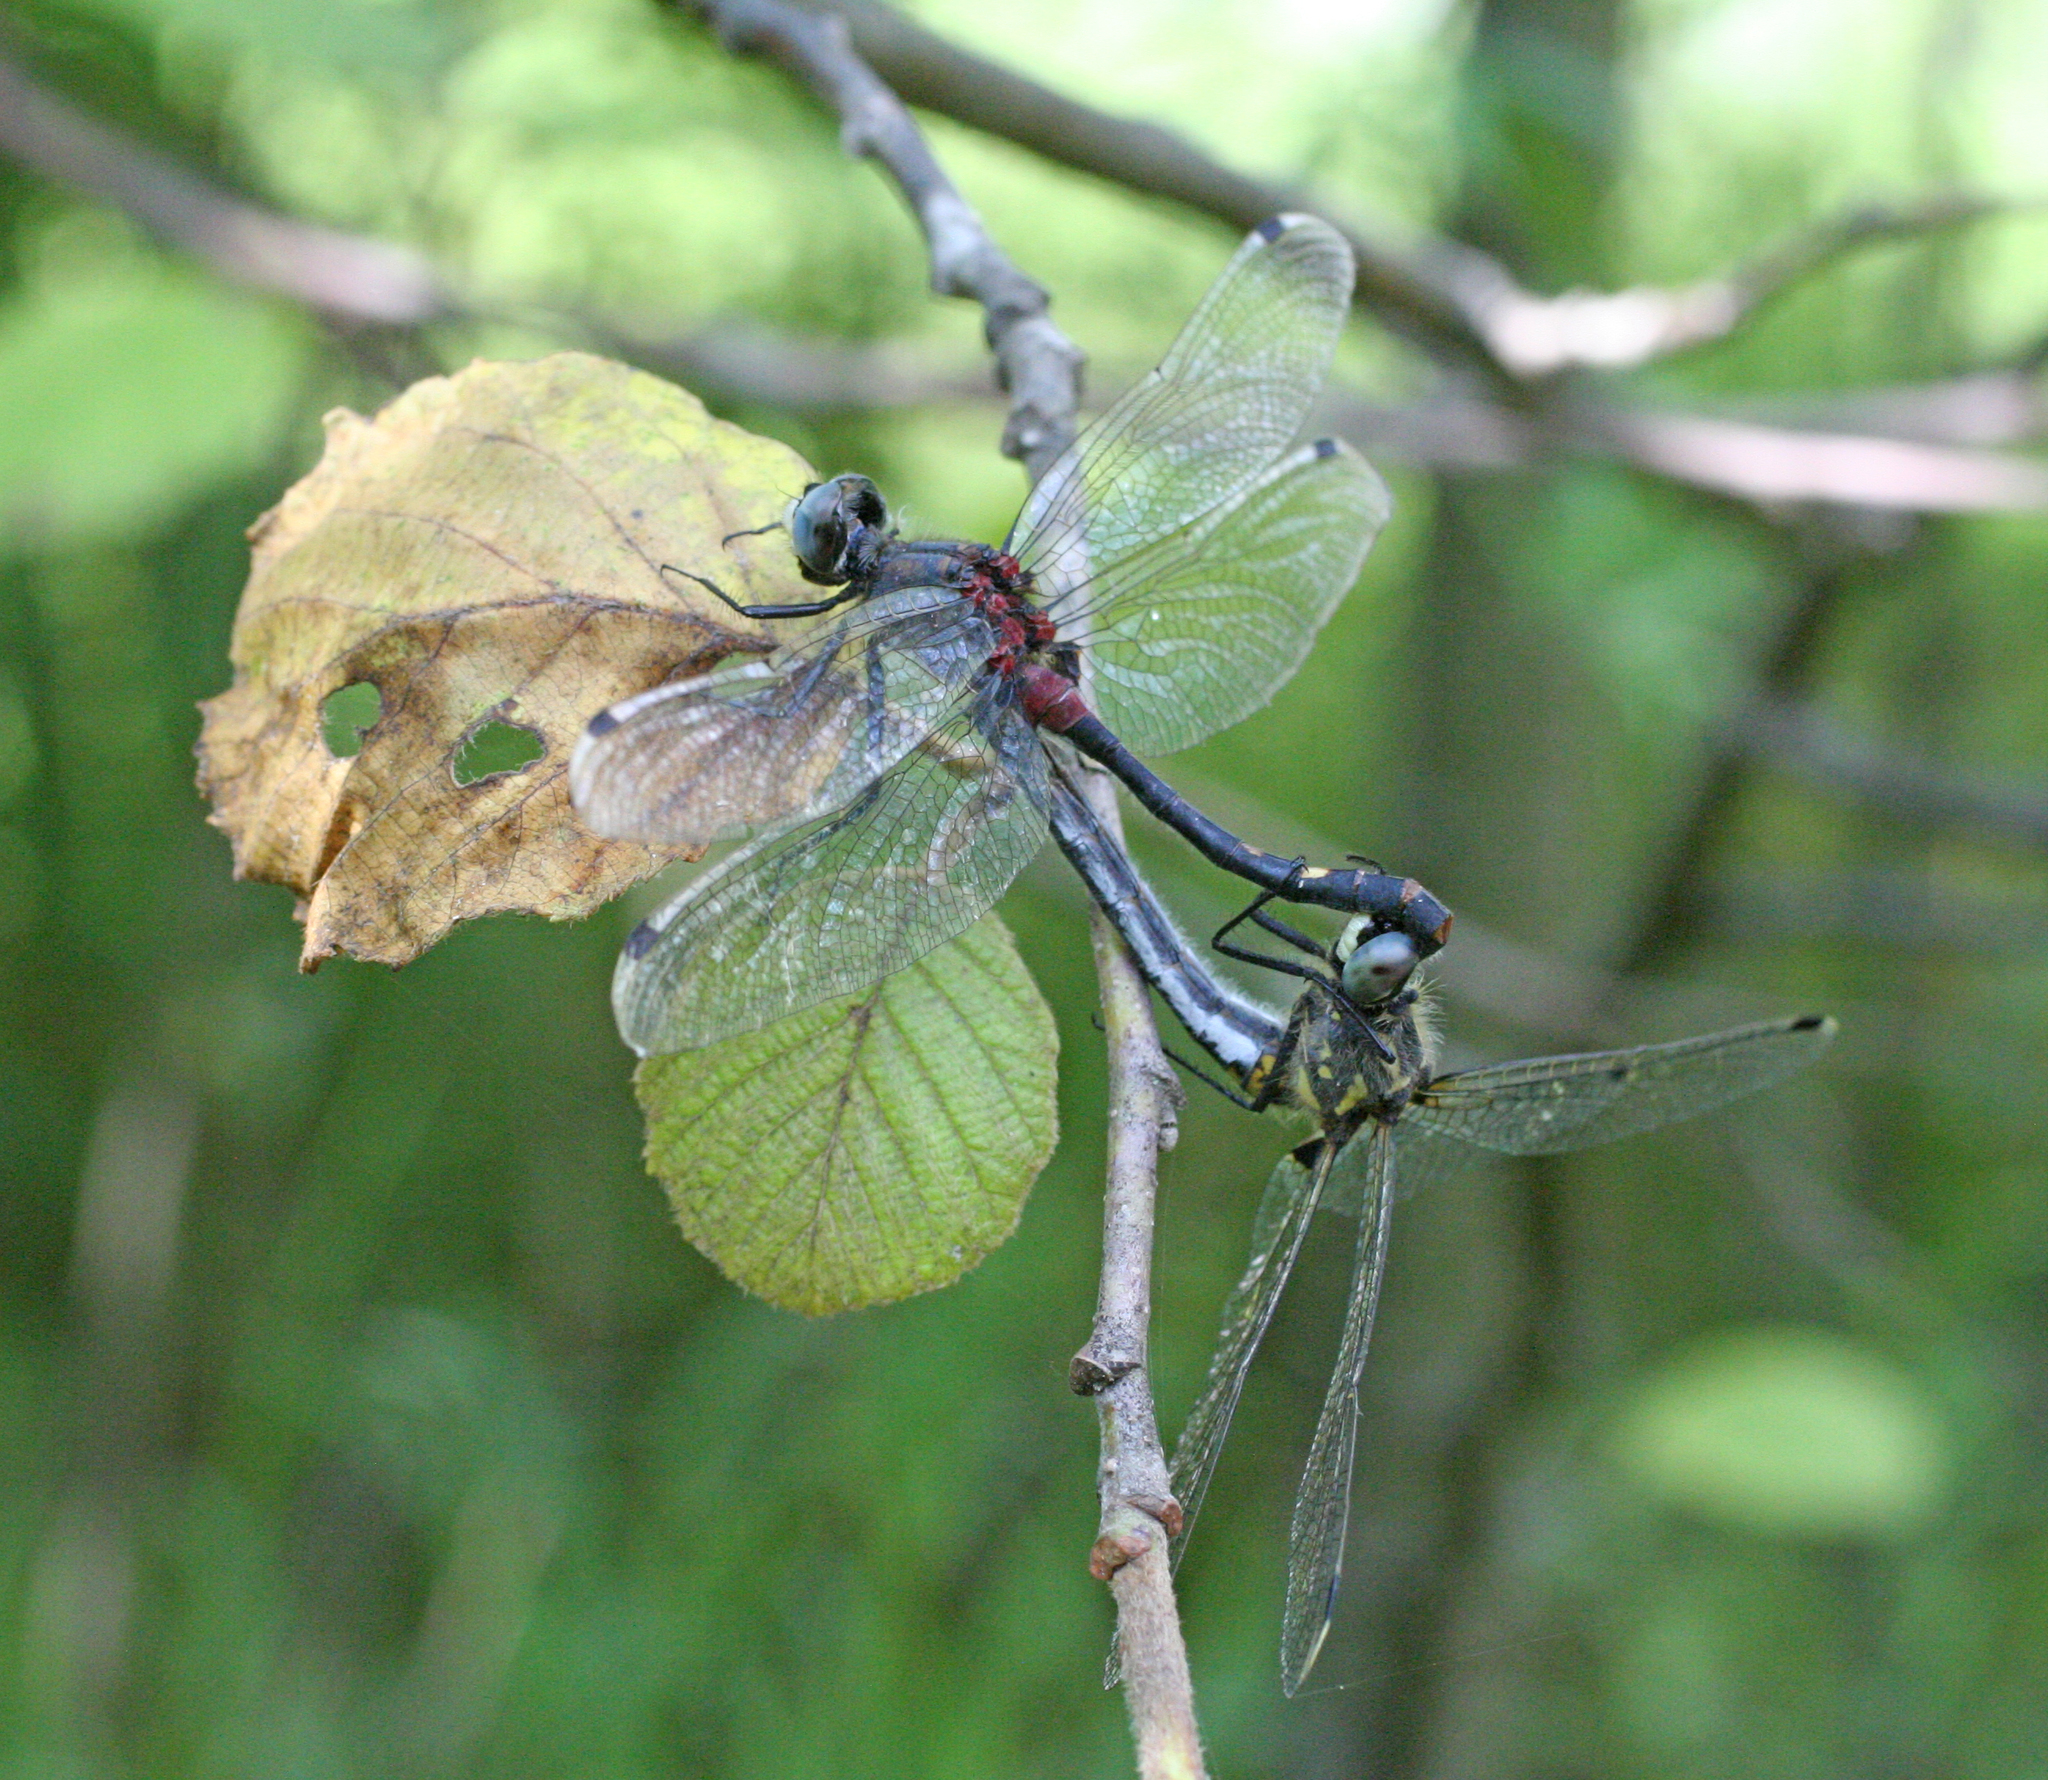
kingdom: Animalia
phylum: Arthropoda
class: Insecta
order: Odonata
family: Libellulidae
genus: Leucorrhinia
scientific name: Leucorrhinia orientalis
